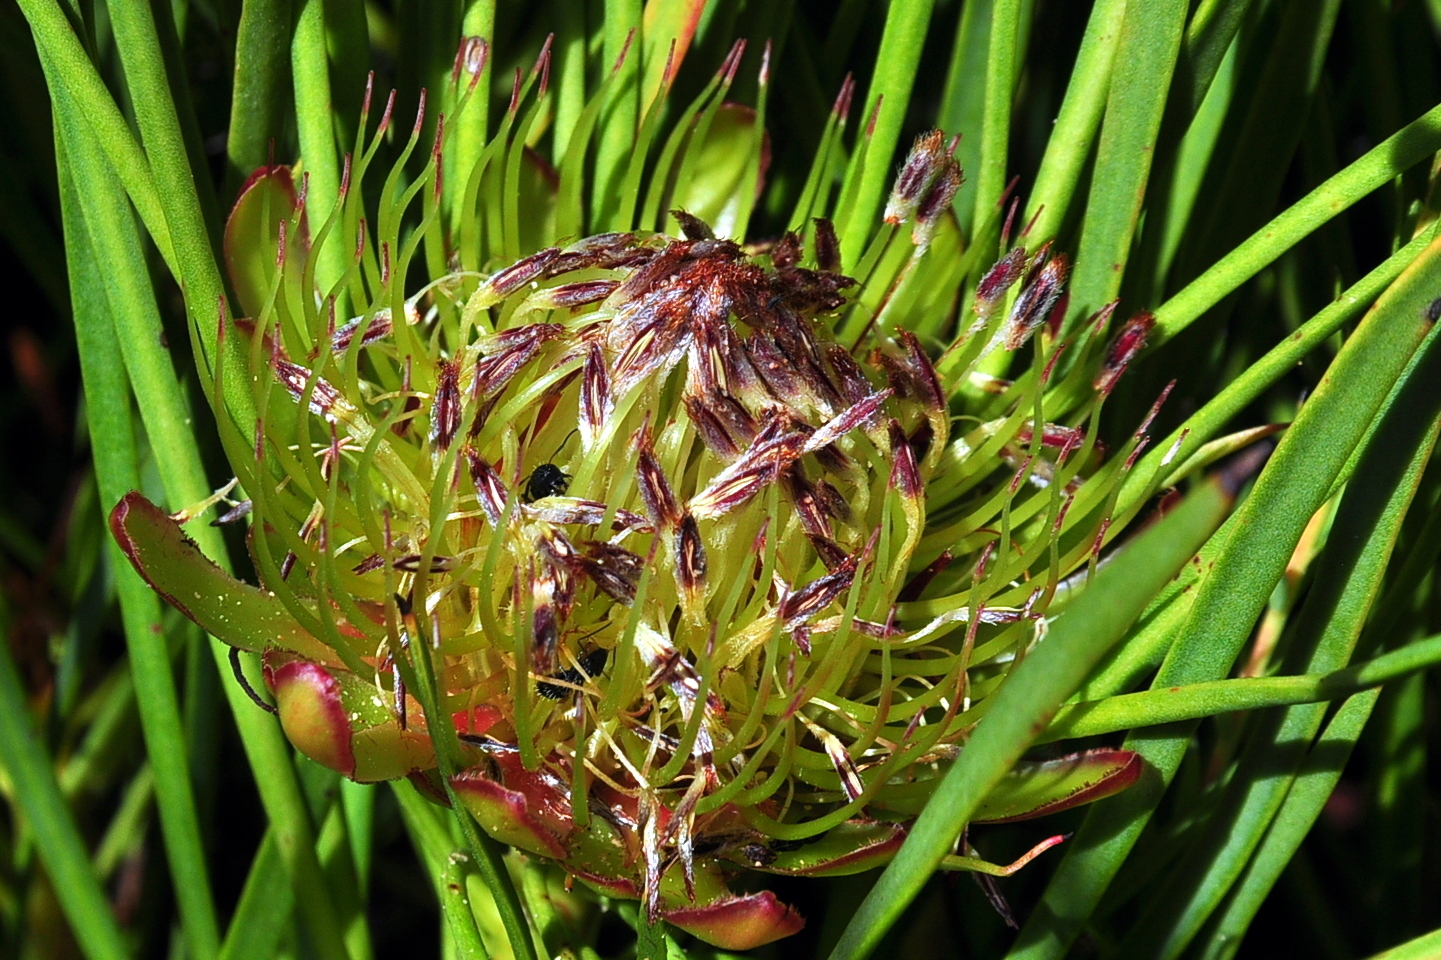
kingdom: Plantae
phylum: Tracheophyta
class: Magnoliopsida
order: Proteales
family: Proteaceae
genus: Protea
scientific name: Protea angustata
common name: Kleinmond sugarbush
